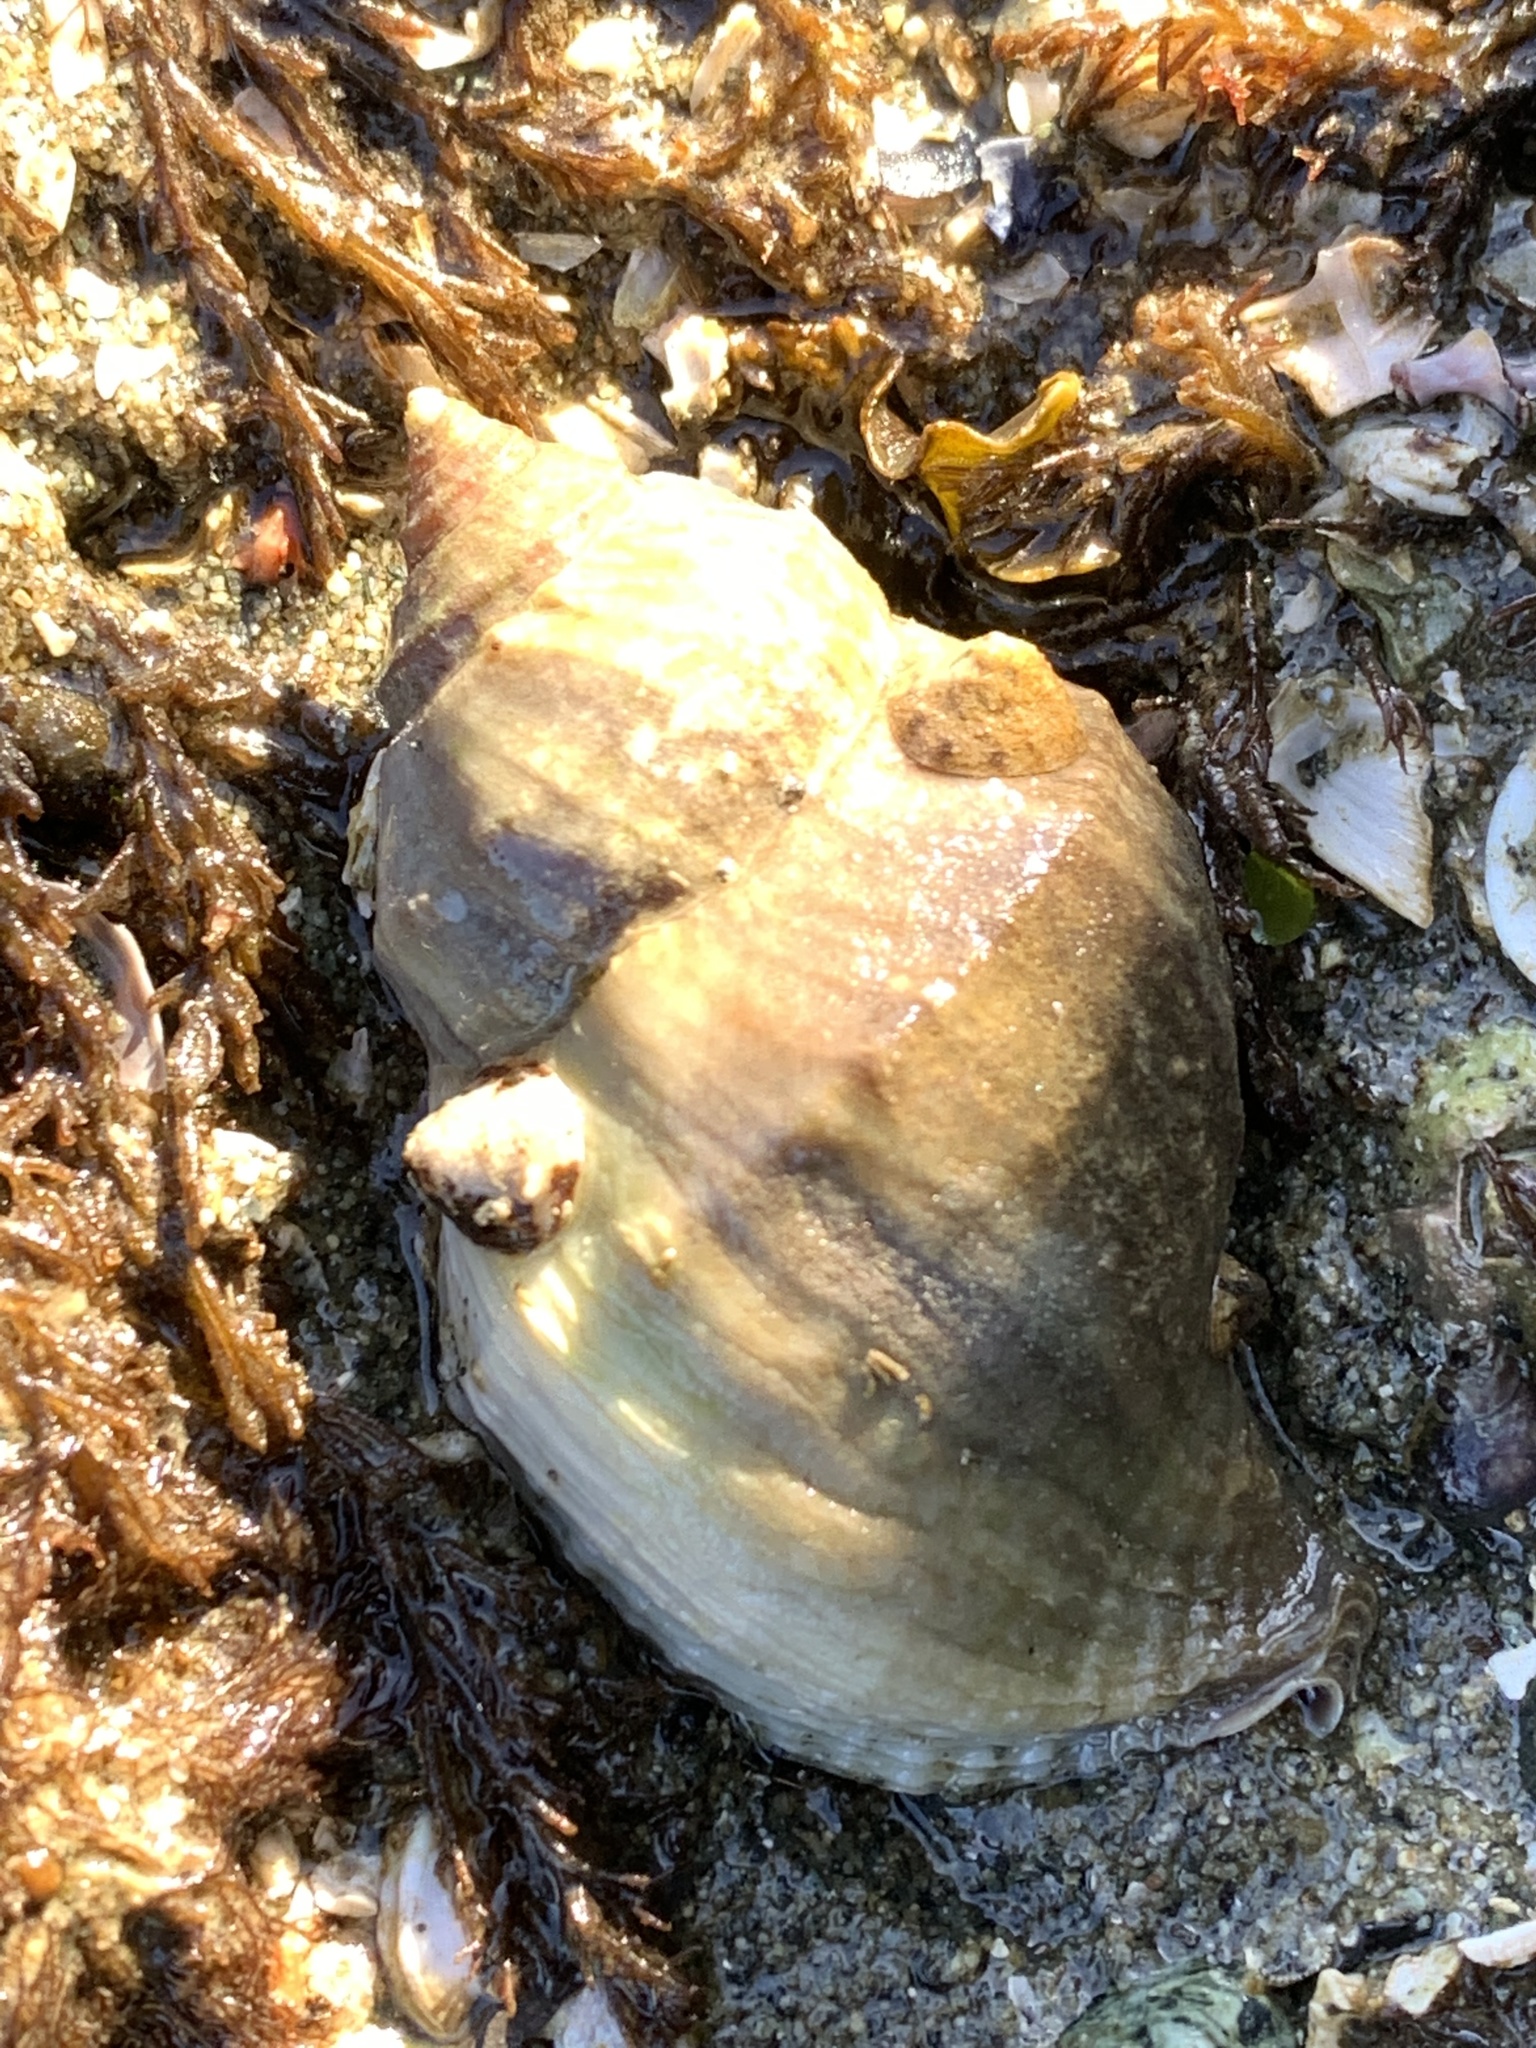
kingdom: Animalia
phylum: Mollusca
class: Gastropoda
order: Neogastropoda
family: Muricidae
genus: Nucella
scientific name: Nucella lamellosa
